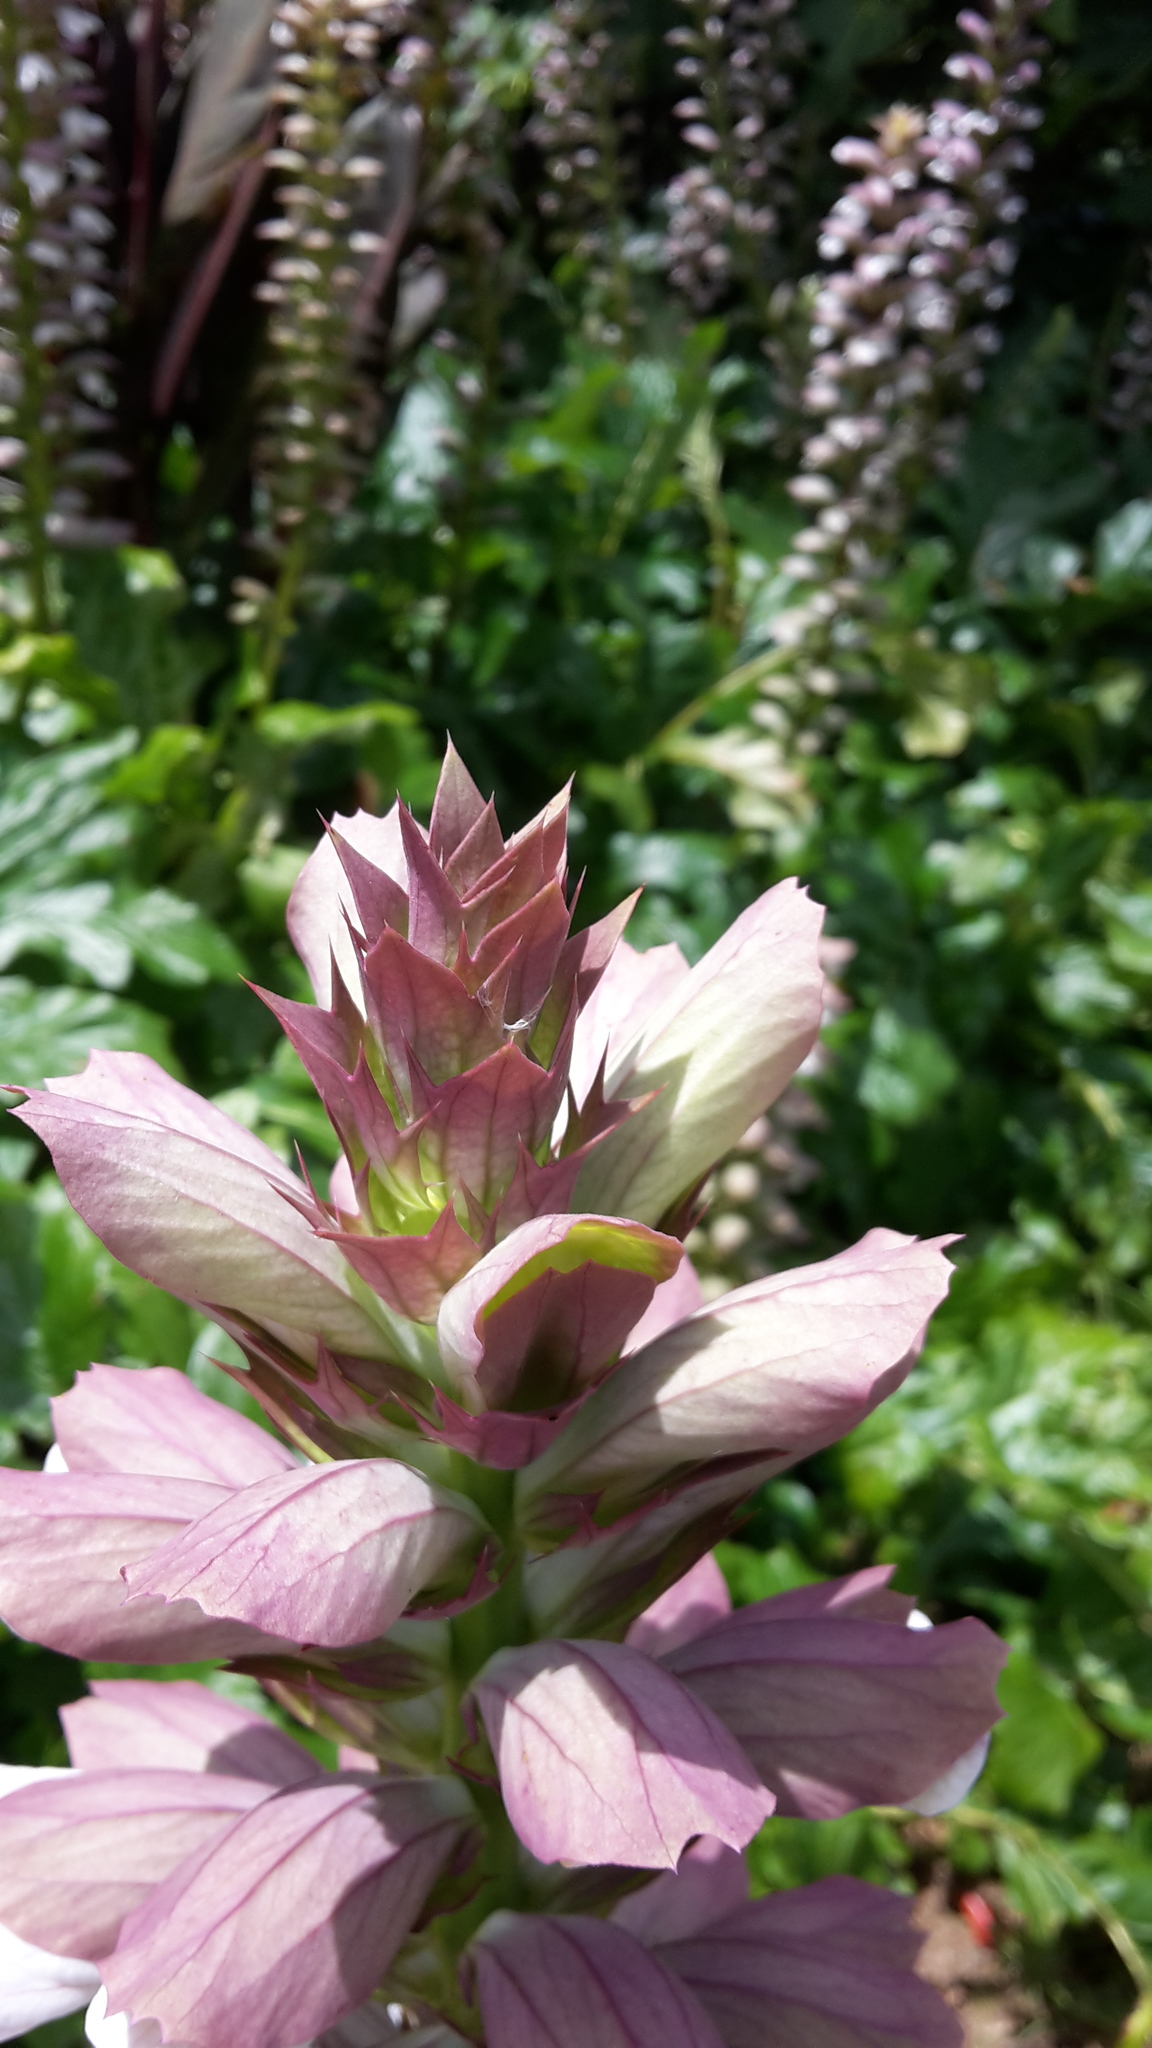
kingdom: Plantae
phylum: Tracheophyta
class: Magnoliopsida
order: Lamiales
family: Acanthaceae
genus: Acanthus
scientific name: Acanthus mollis
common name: Bear's-breech
